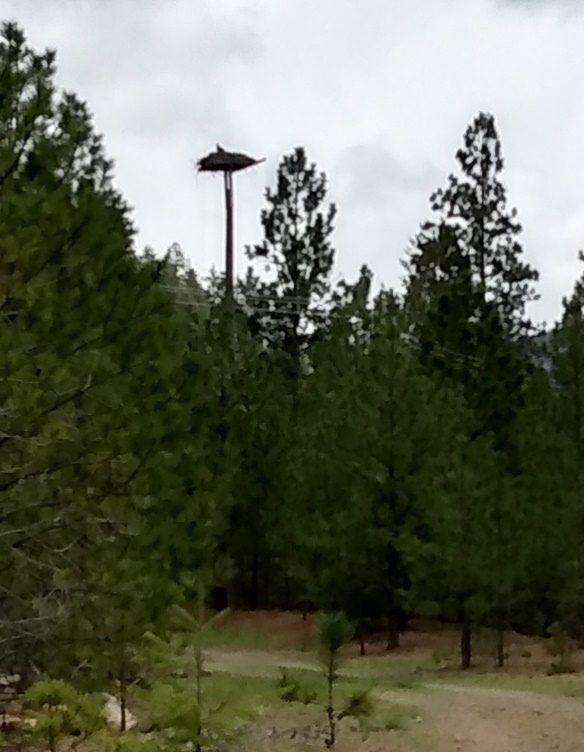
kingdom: Animalia
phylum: Chordata
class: Aves
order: Accipitriformes
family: Pandionidae
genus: Pandion
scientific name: Pandion haliaetus
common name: Osprey
